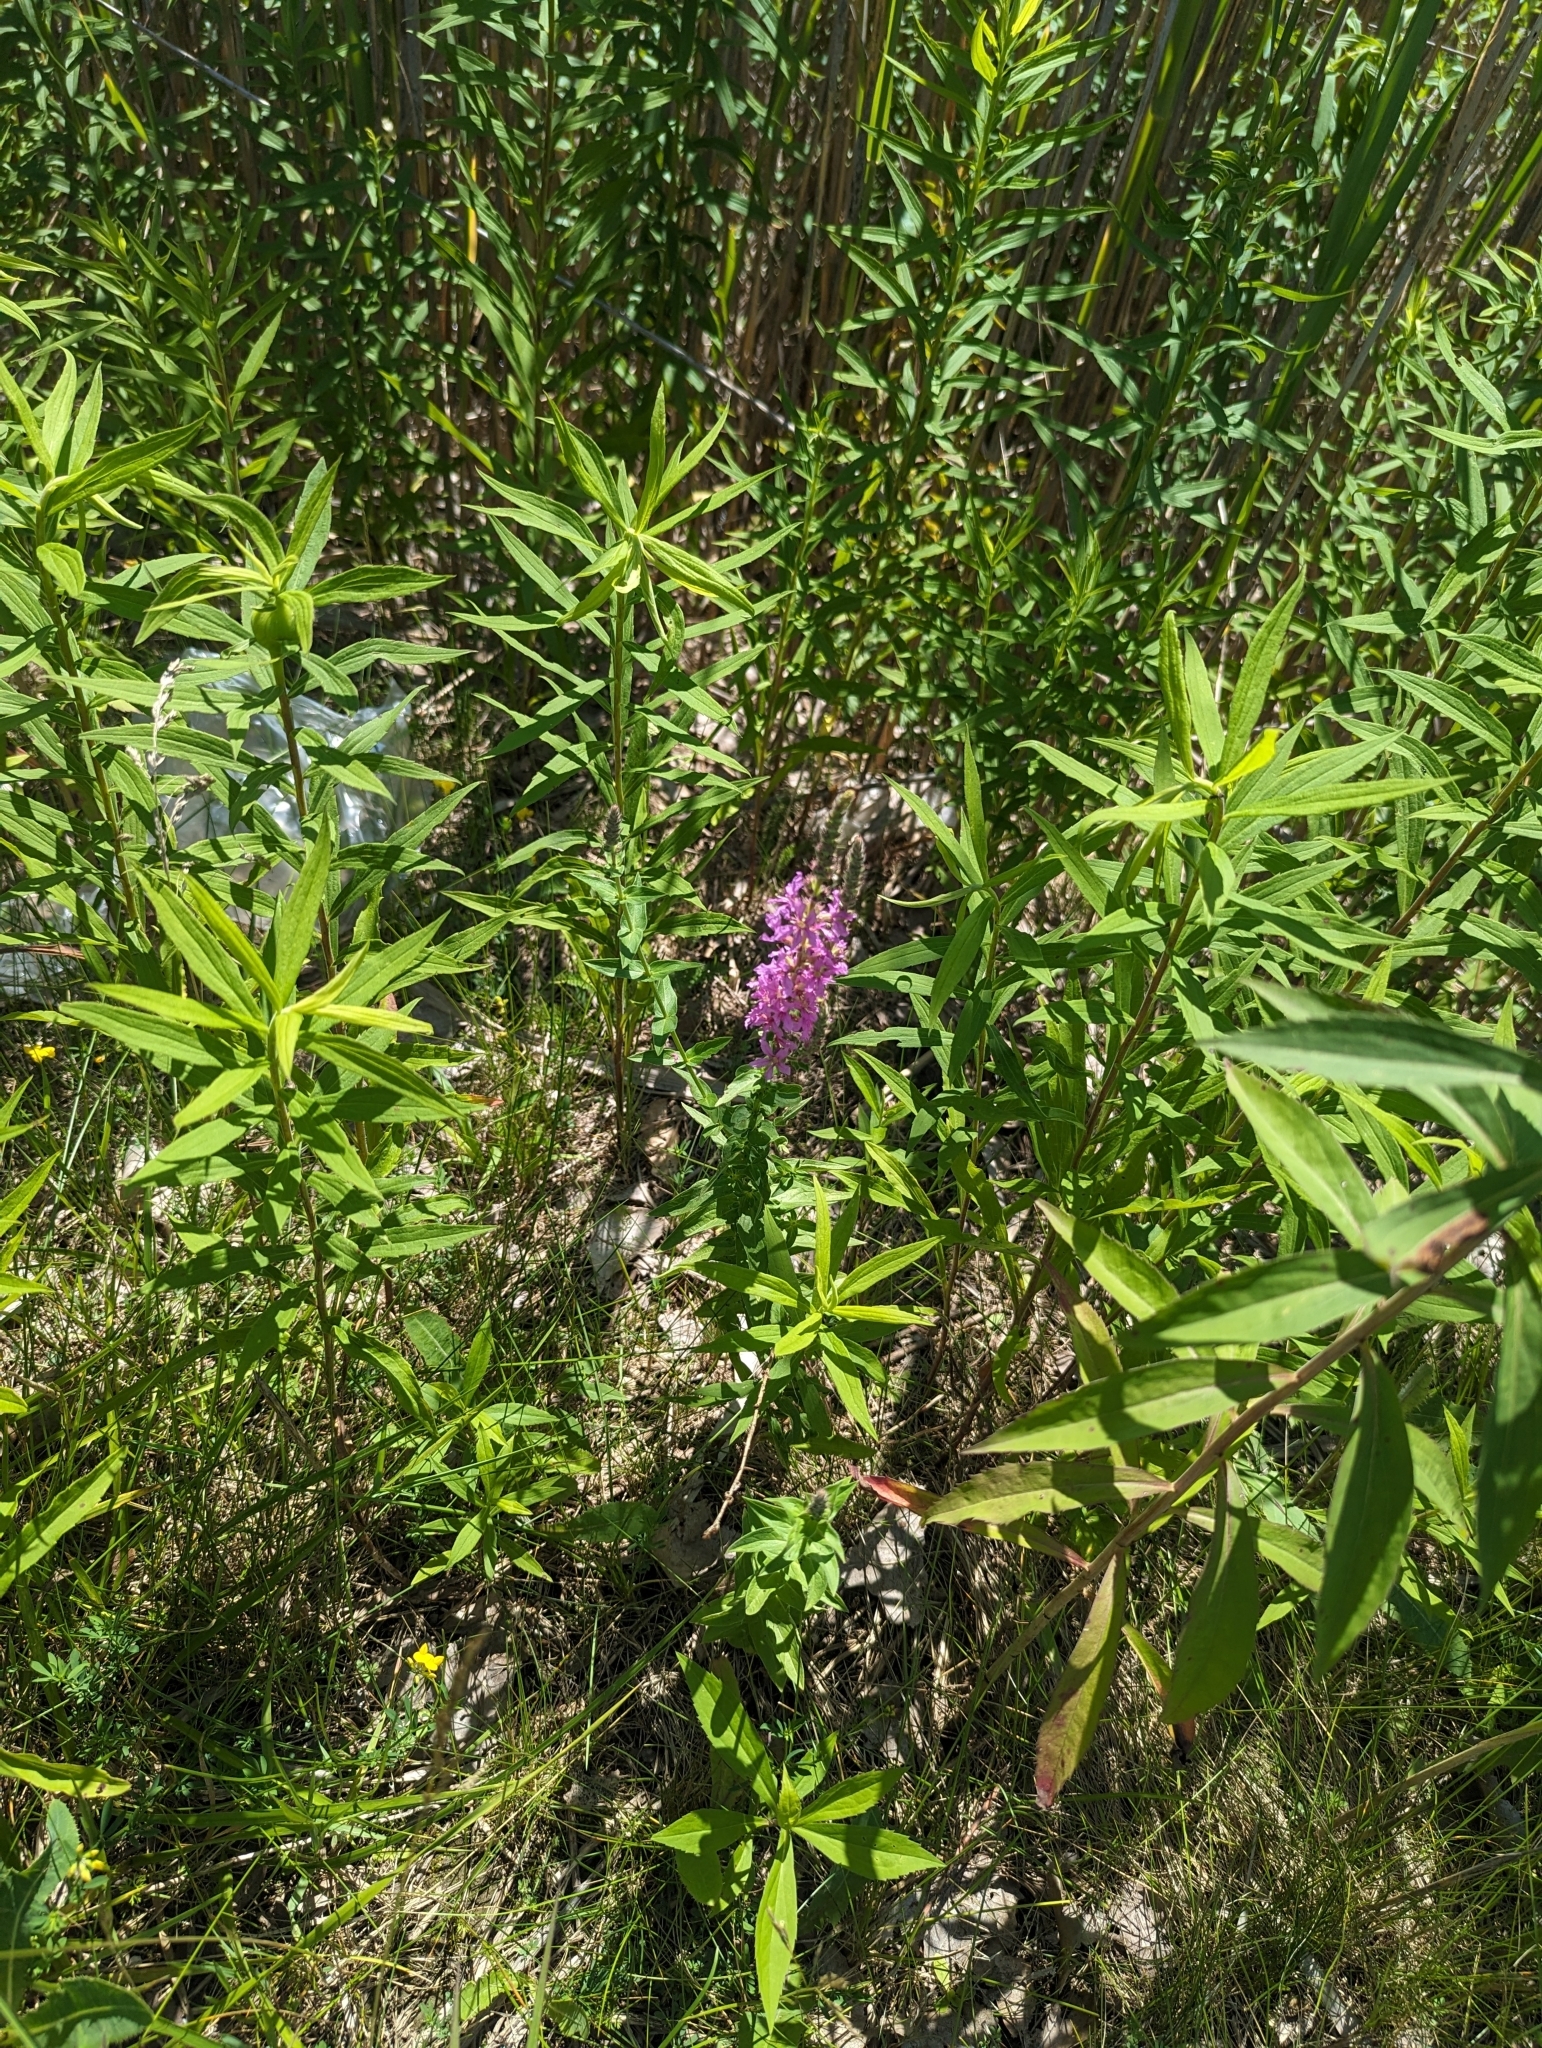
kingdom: Plantae
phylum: Tracheophyta
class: Magnoliopsida
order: Myrtales
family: Lythraceae
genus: Lythrum
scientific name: Lythrum salicaria
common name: Purple loosestrife
